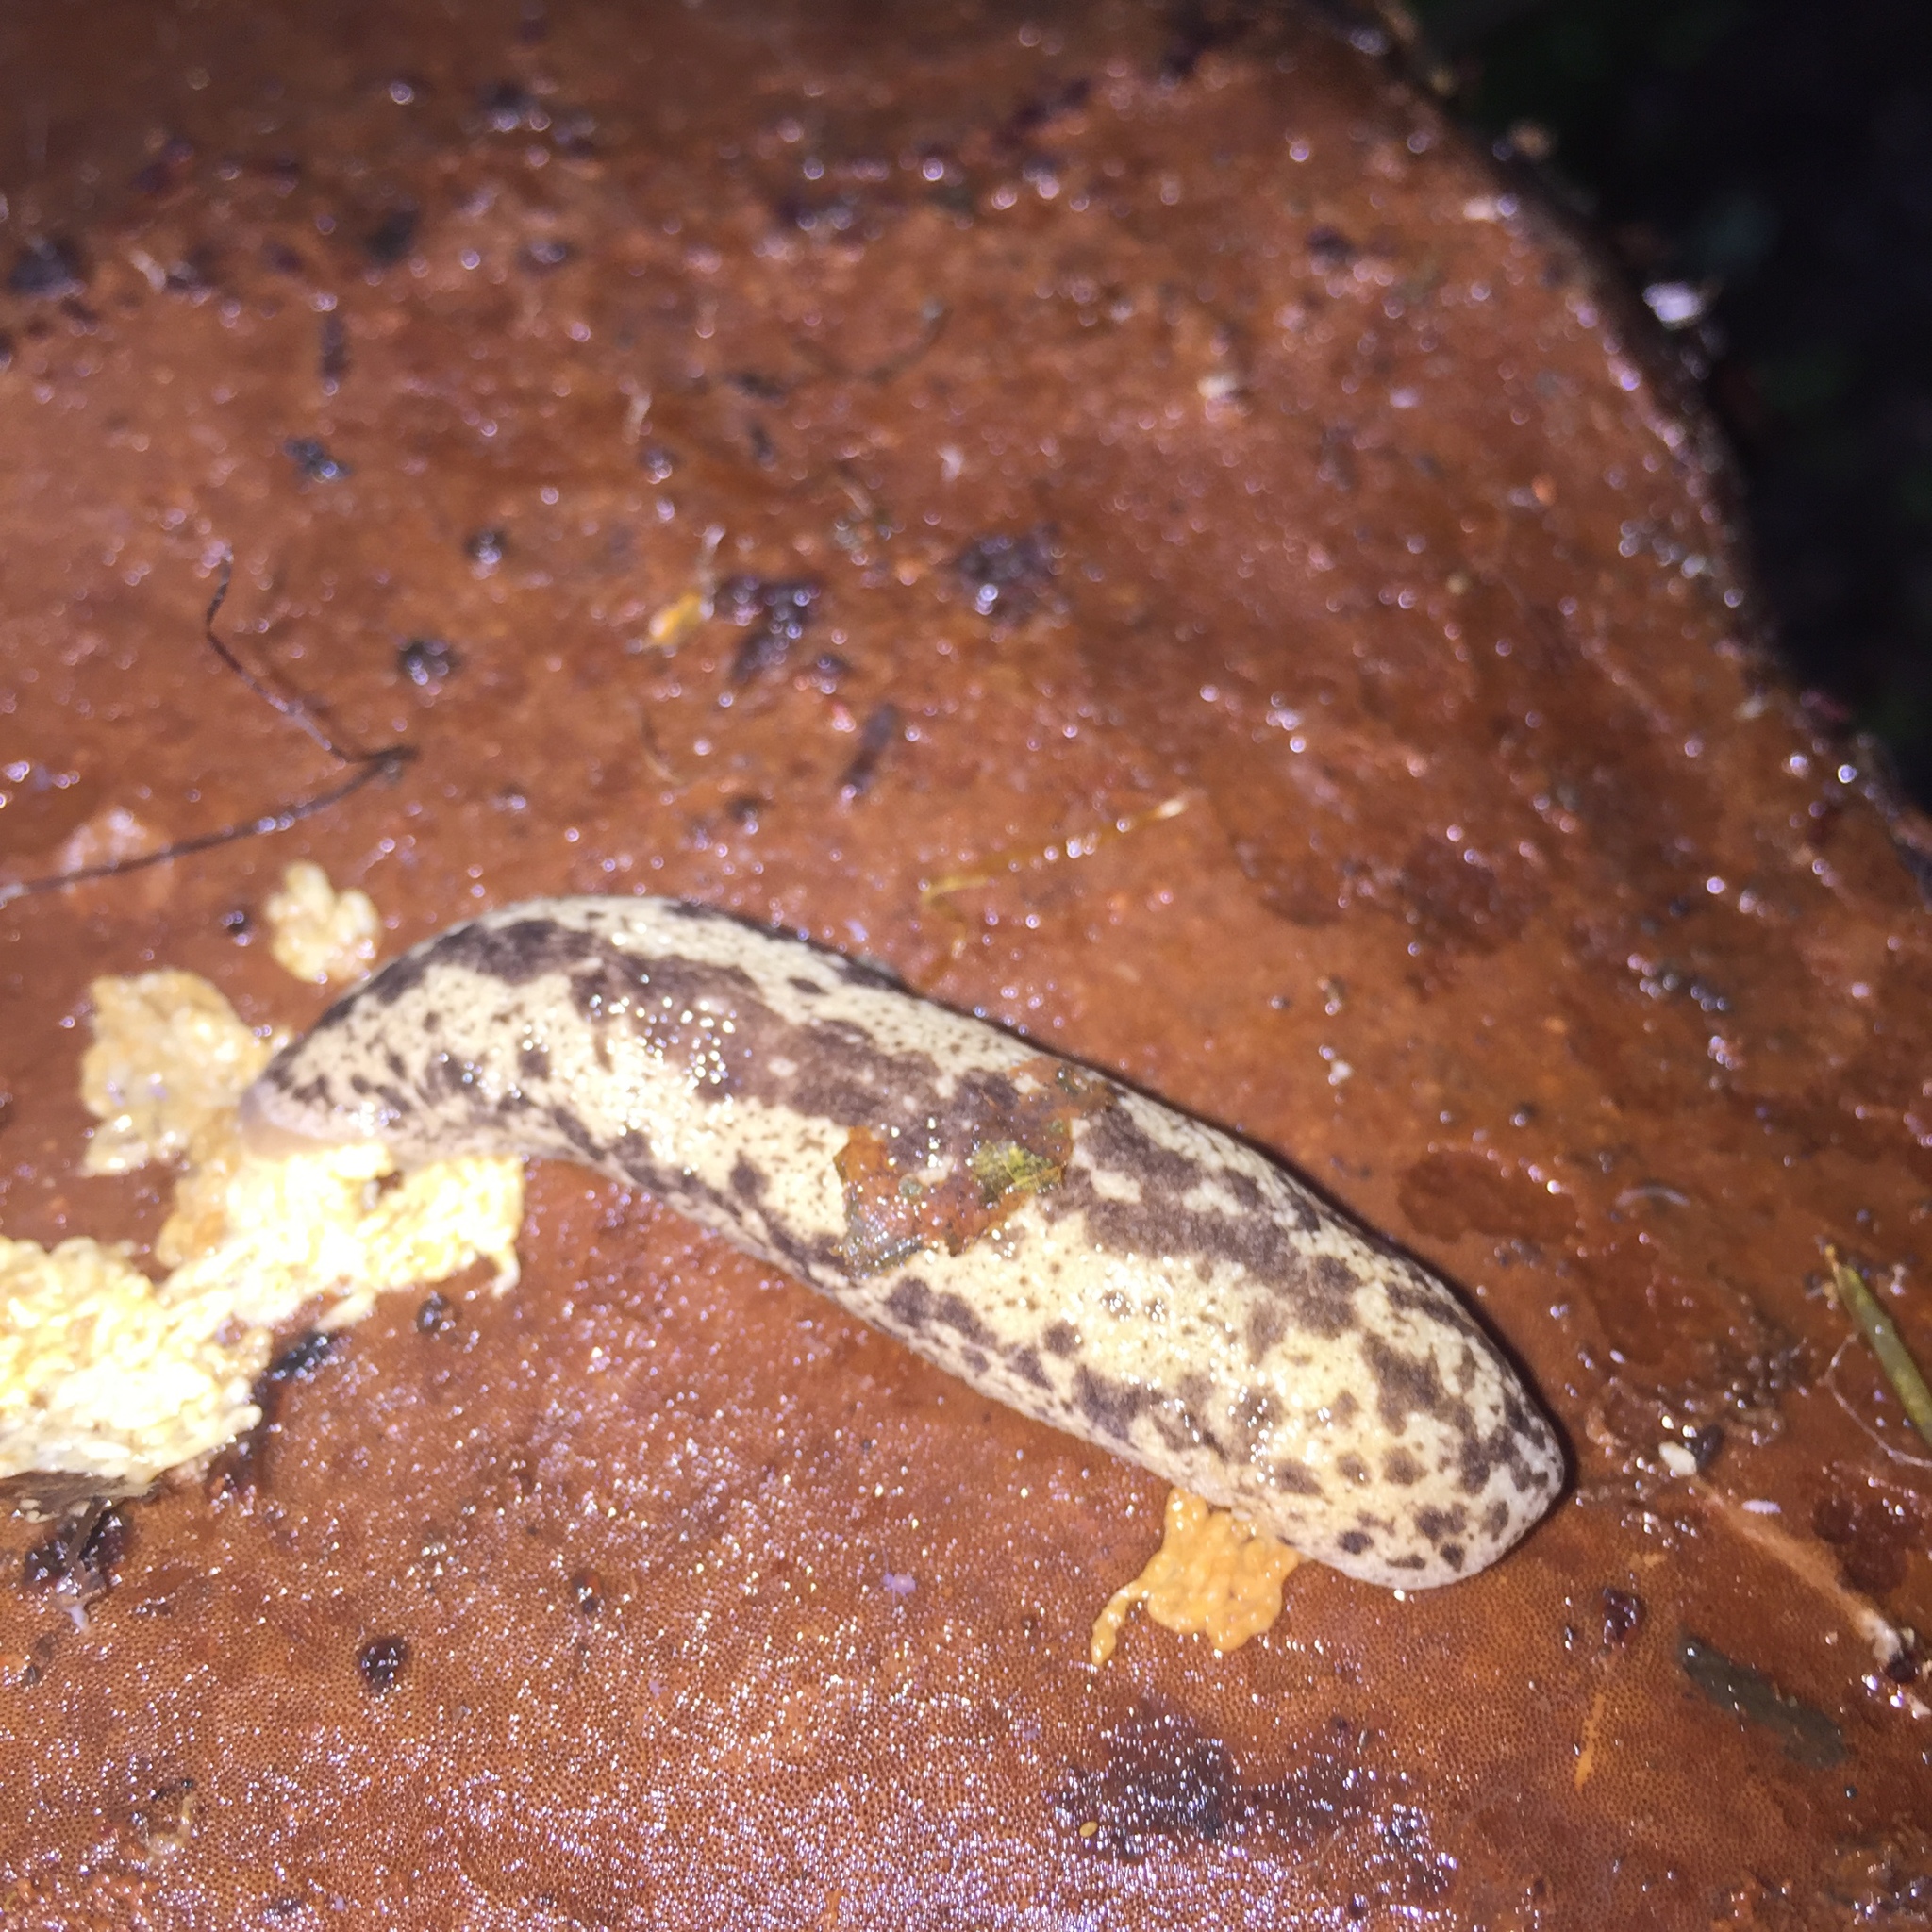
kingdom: Animalia
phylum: Mollusca
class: Gastropoda
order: Stylommatophora
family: Philomycidae
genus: Philomycus
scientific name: Philomycus flexuolaris
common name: Winding mantleslug
